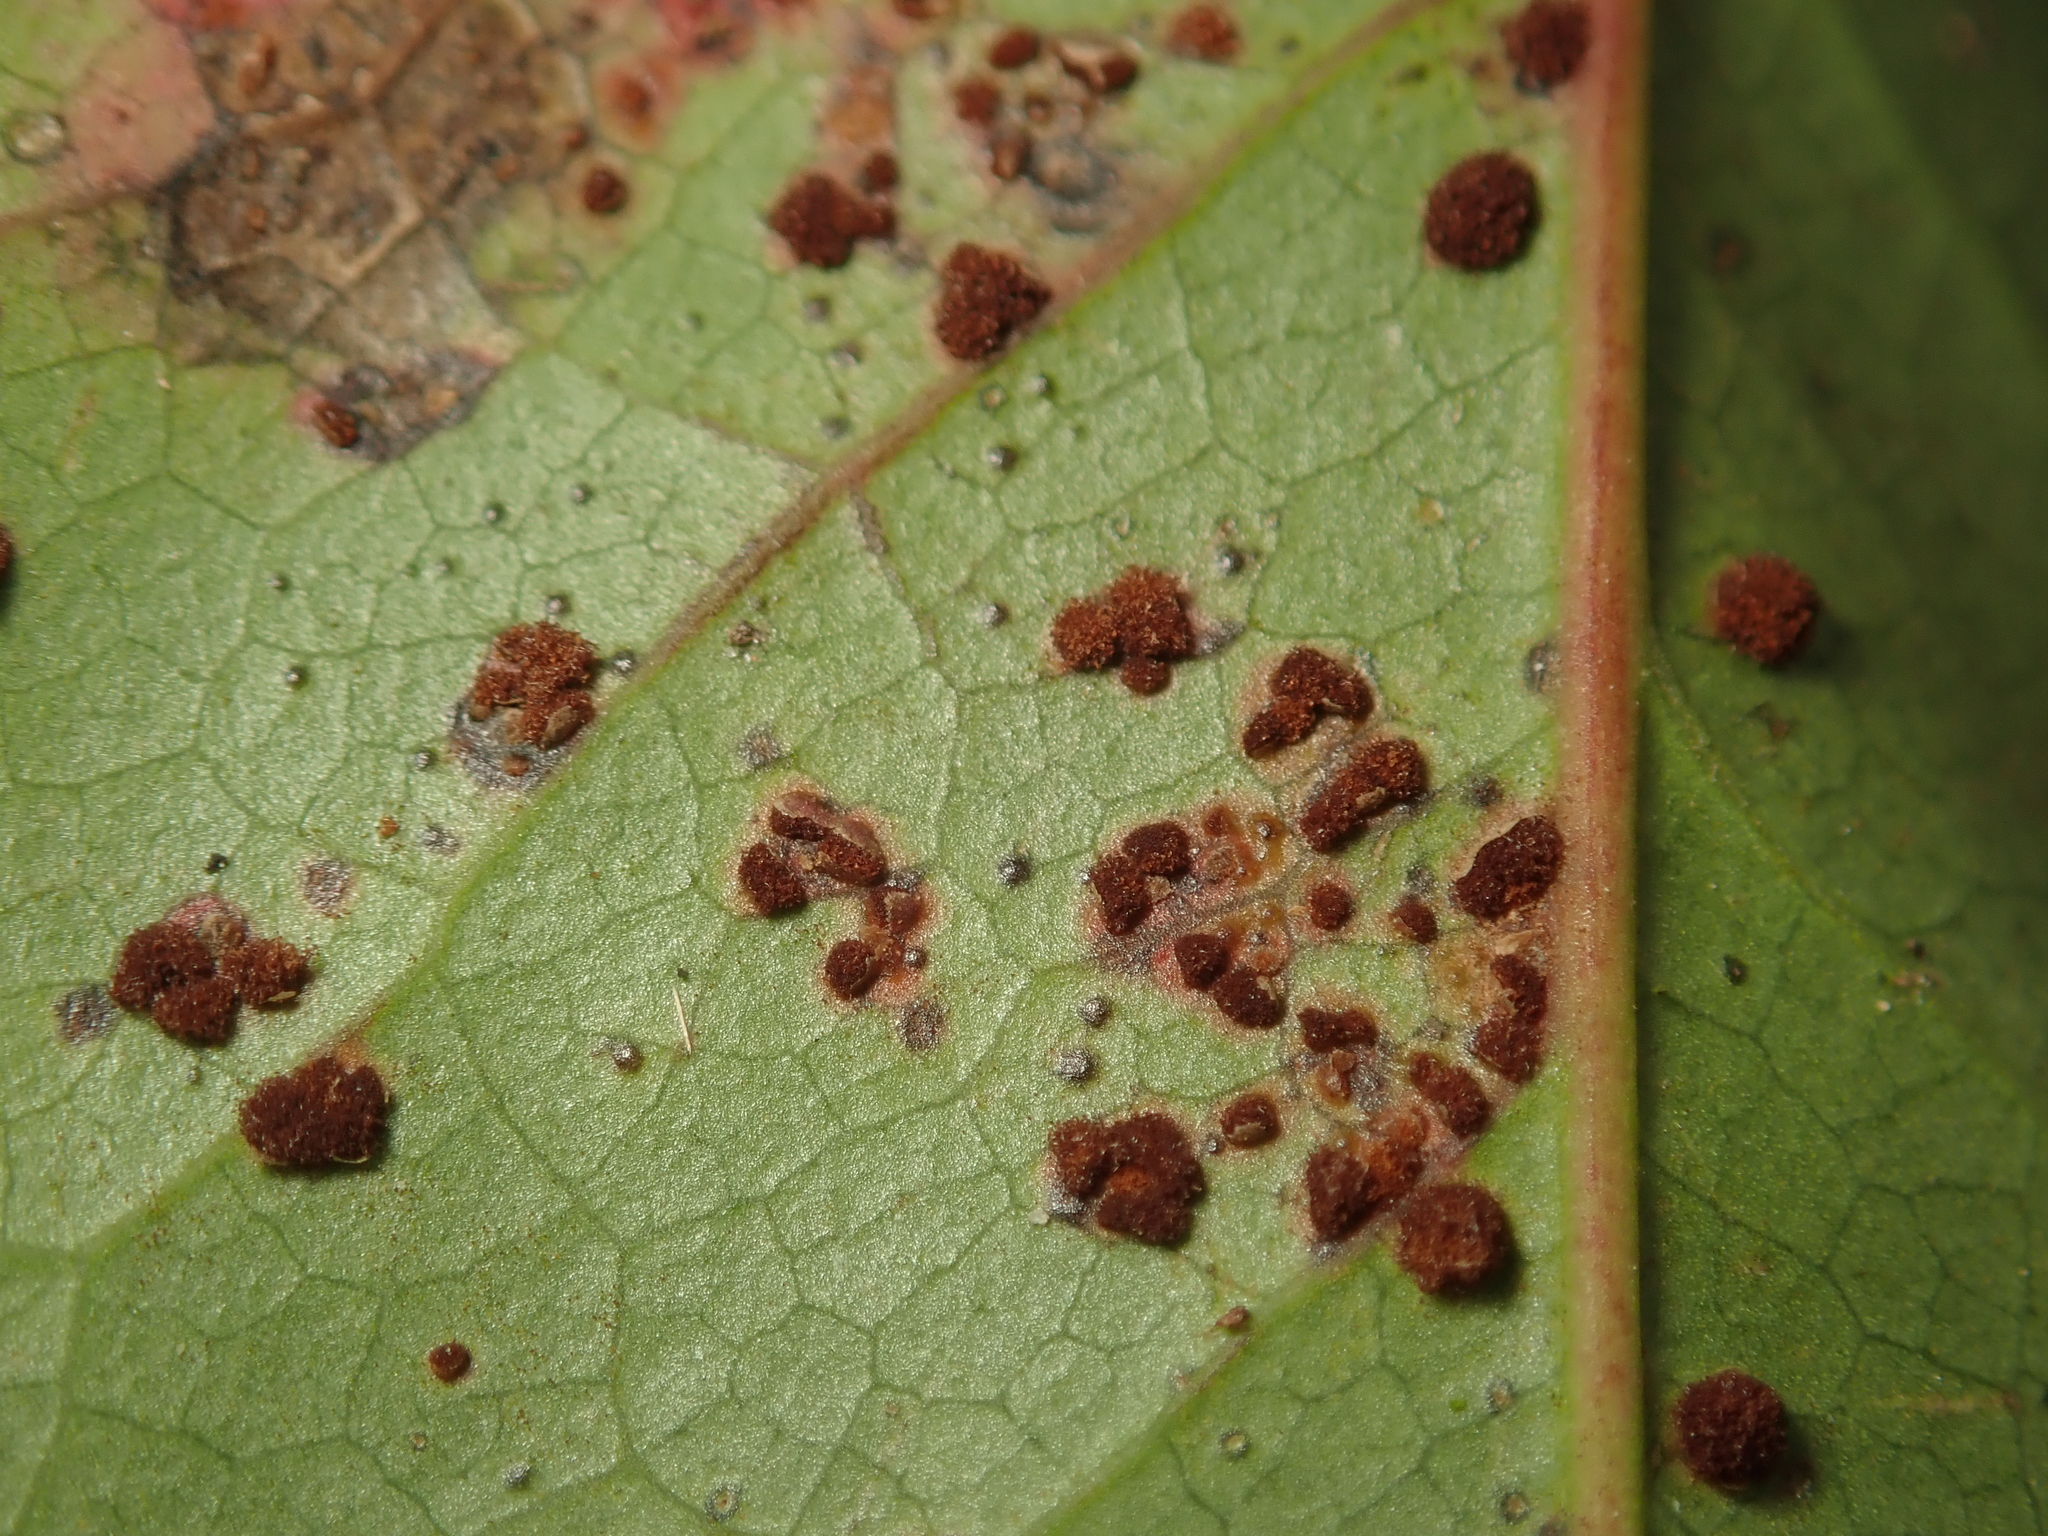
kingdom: Fungi
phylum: Basidiomycota
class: Pucciniomycetes
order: Pucciniales
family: Pucciniaceae
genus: Cumminsiella
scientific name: Cumminsiella mirabilissima
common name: Mahonia rust
